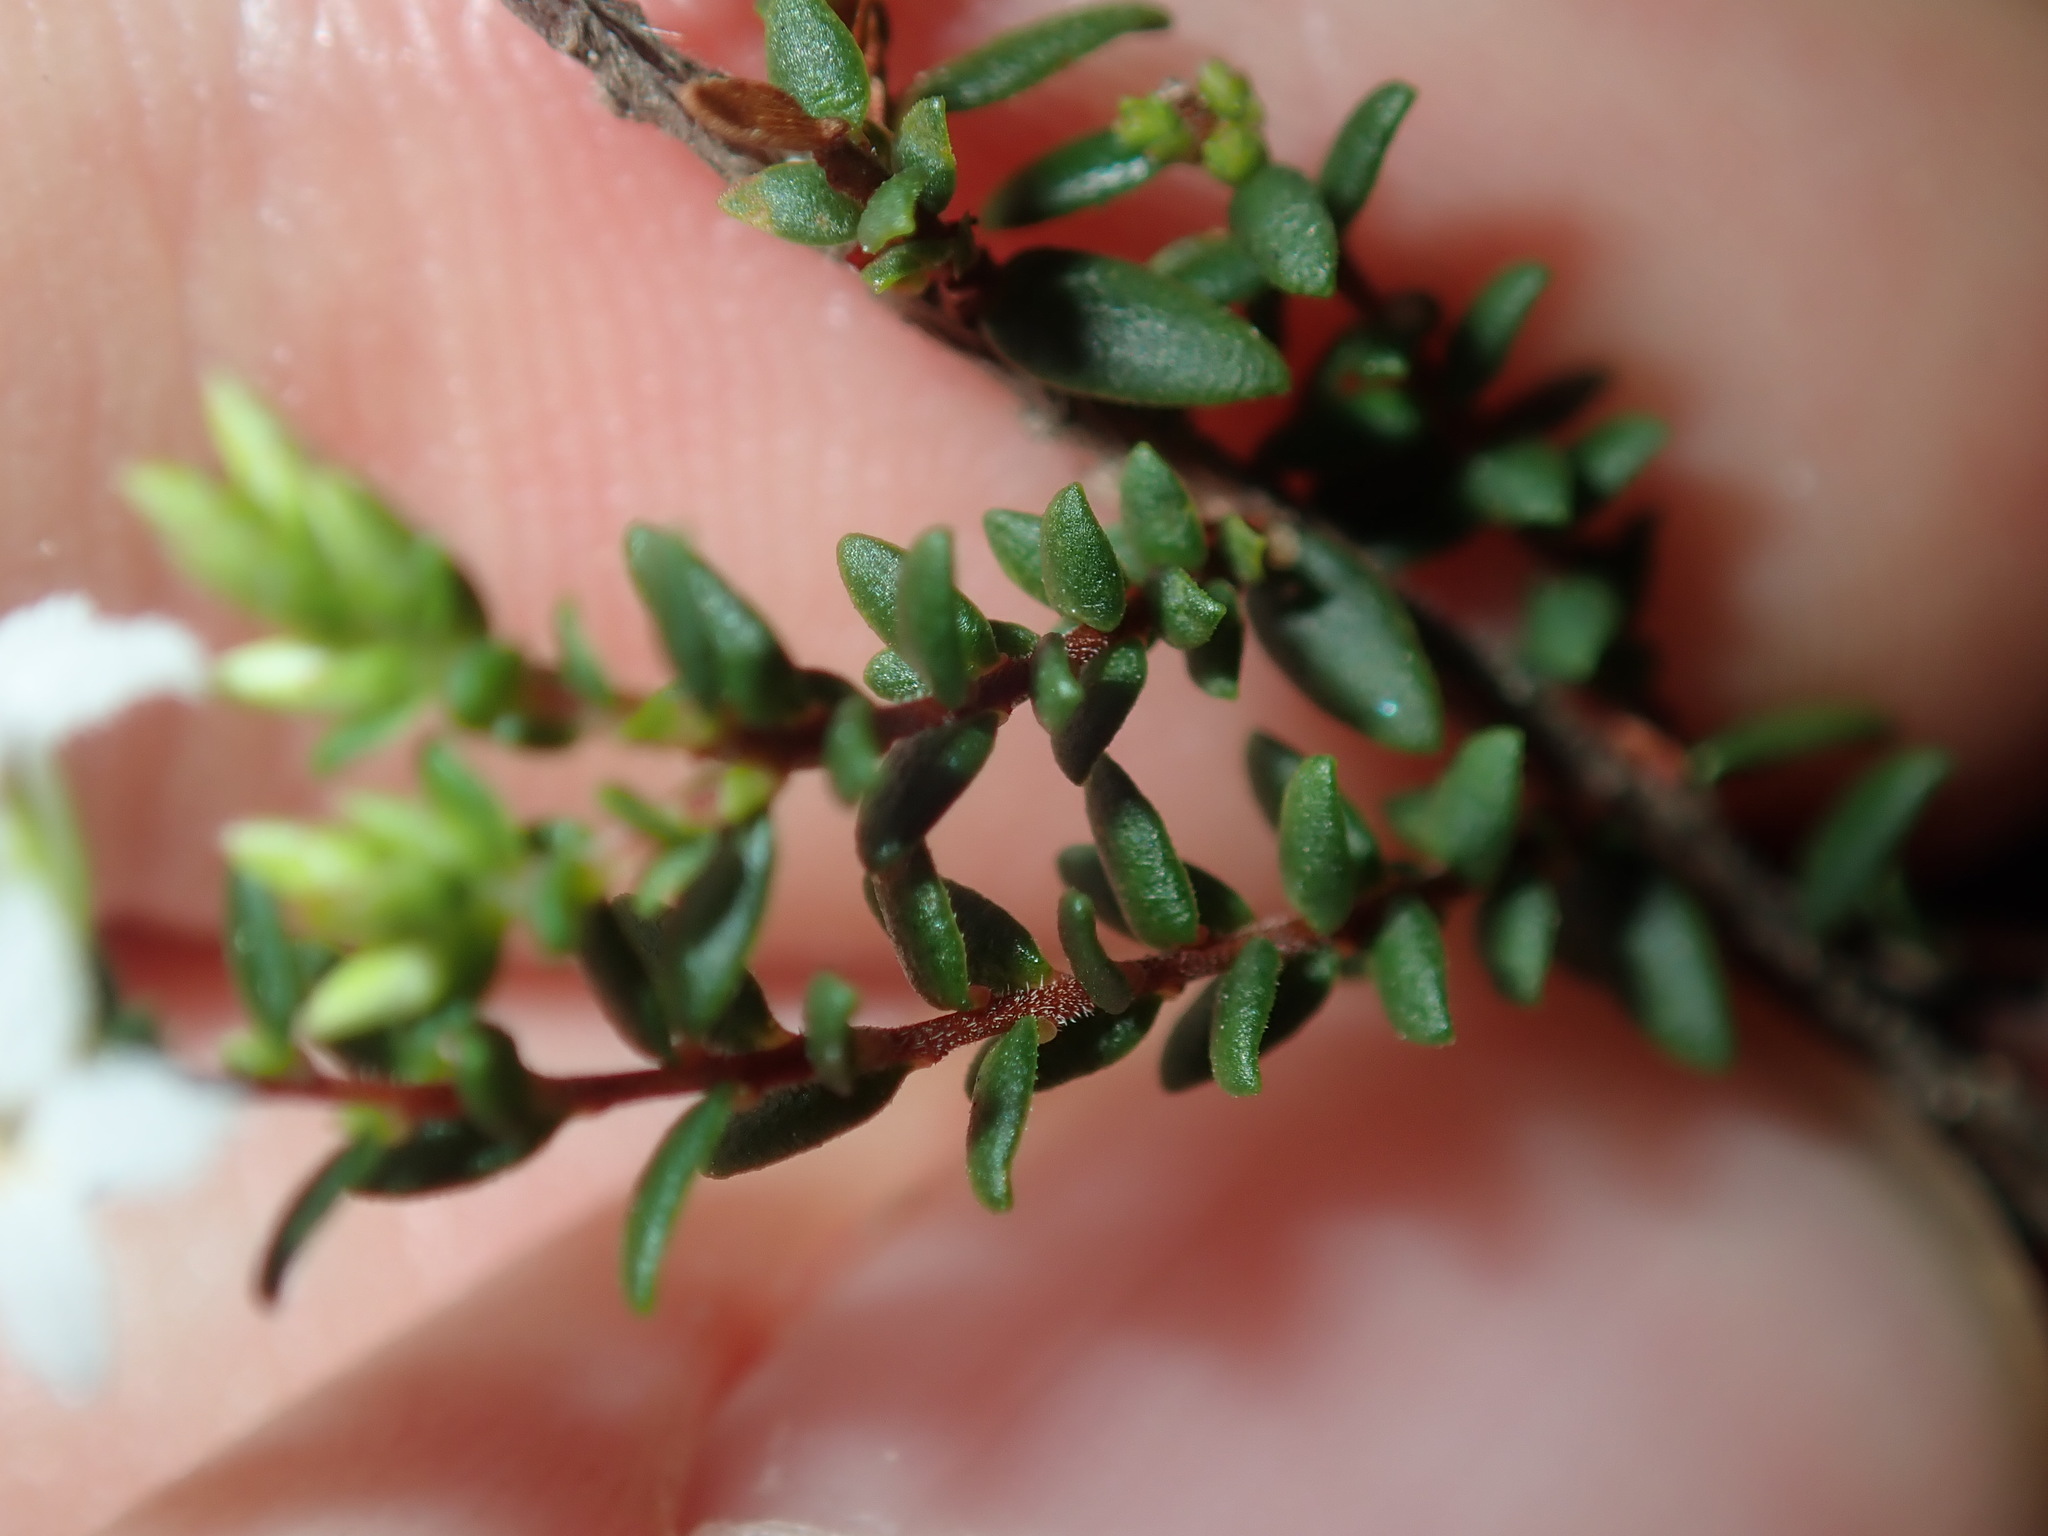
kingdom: Plantae
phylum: Tracheophyta
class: Magnoliopsida
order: Ericales
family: Ericaceae
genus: Leucopogon
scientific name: Leucopogon microphyllus
